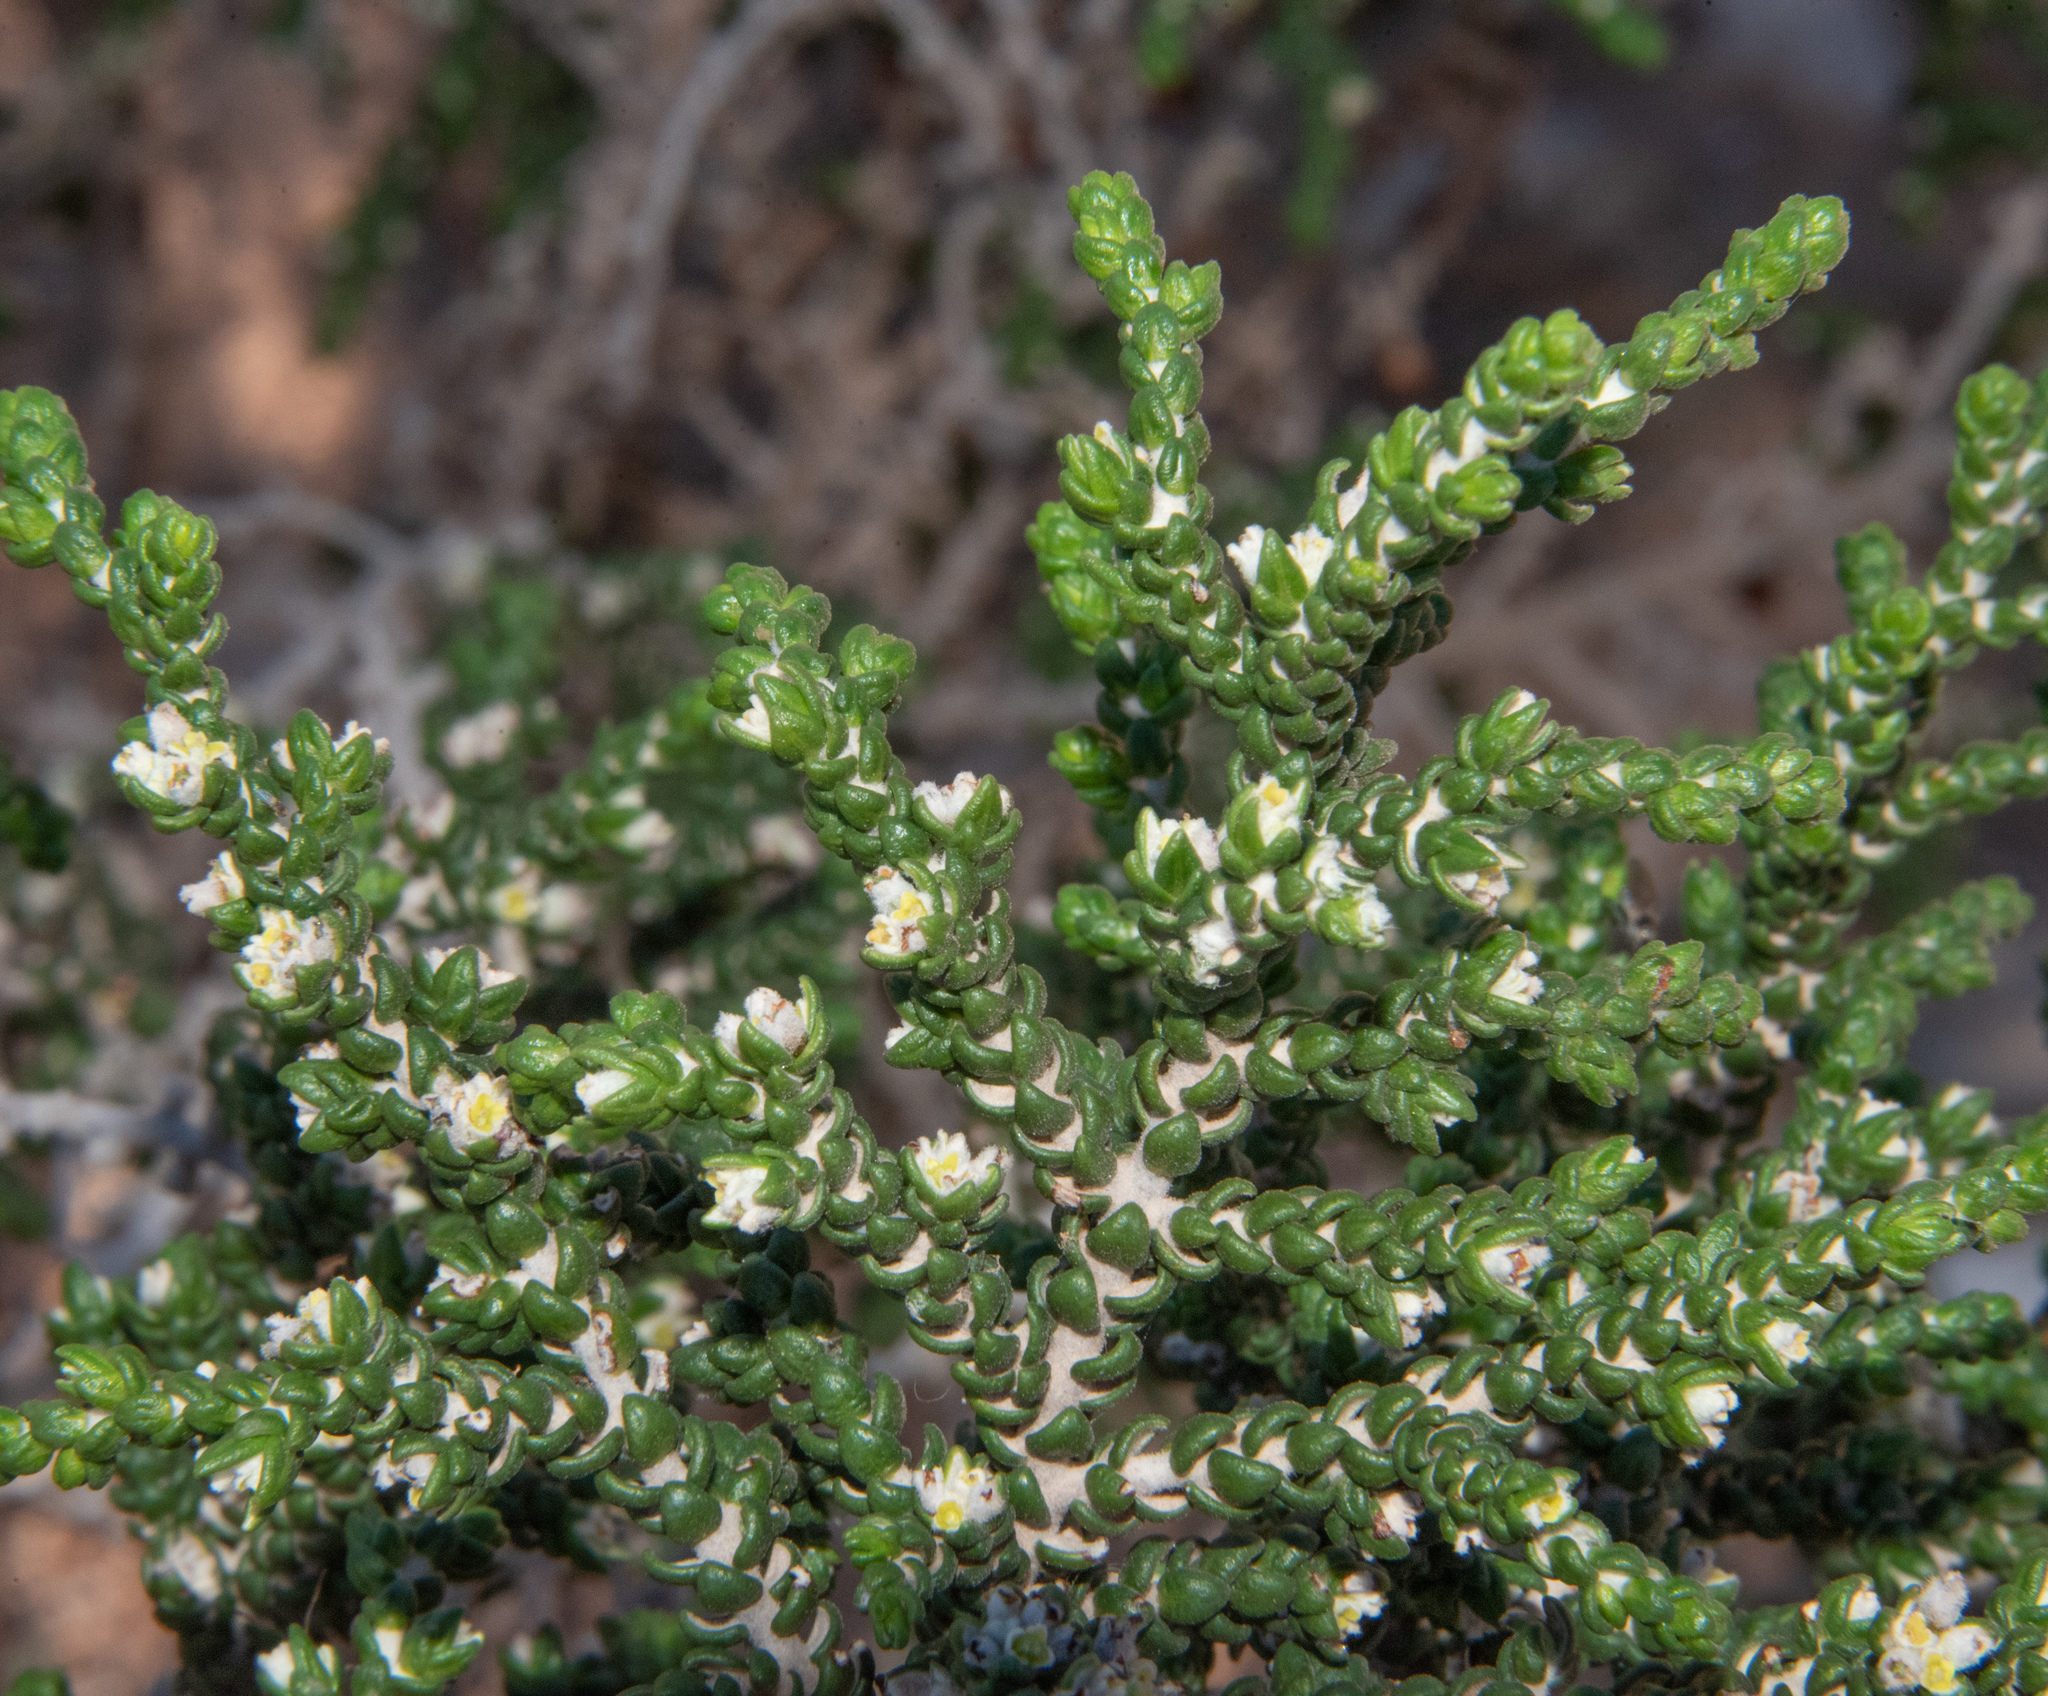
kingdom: Plantae
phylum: Tracheophyta
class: Magnoliopsida
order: Malvales
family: Thymelaeaceae
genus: Thymelaea
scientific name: Thymelaea hirsuta
